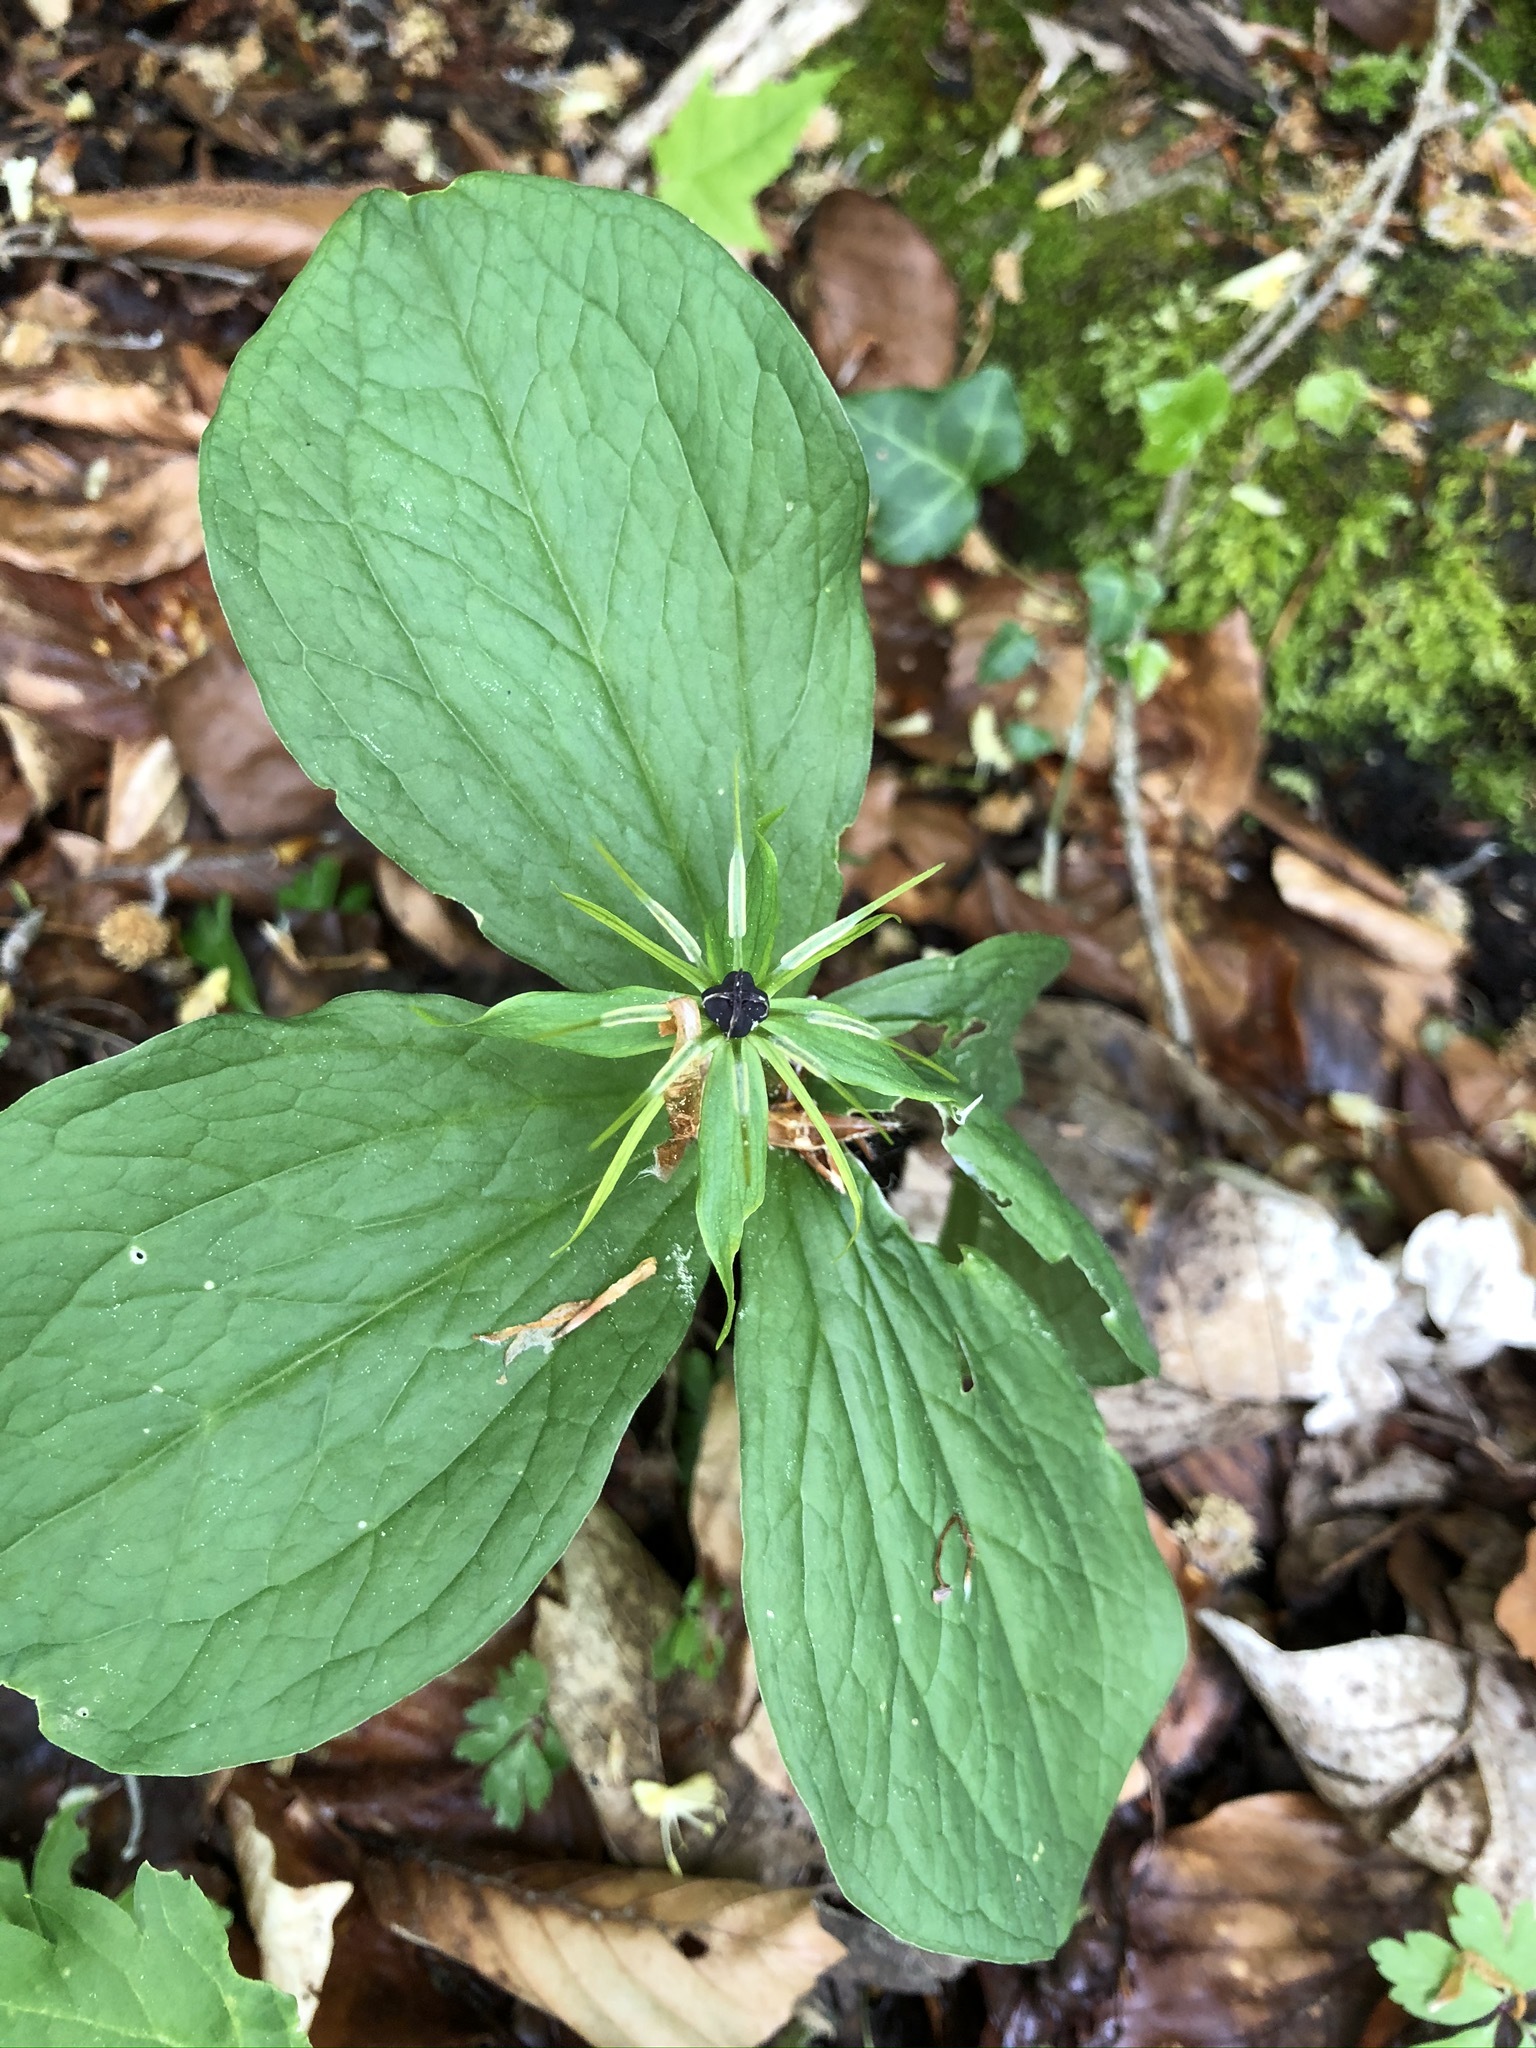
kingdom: Plantae
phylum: Tracheophyta
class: Liliopsida
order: Liliales
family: Melanthiaceae
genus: Paris
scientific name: Paris quadrifolia
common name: Herb-paris
